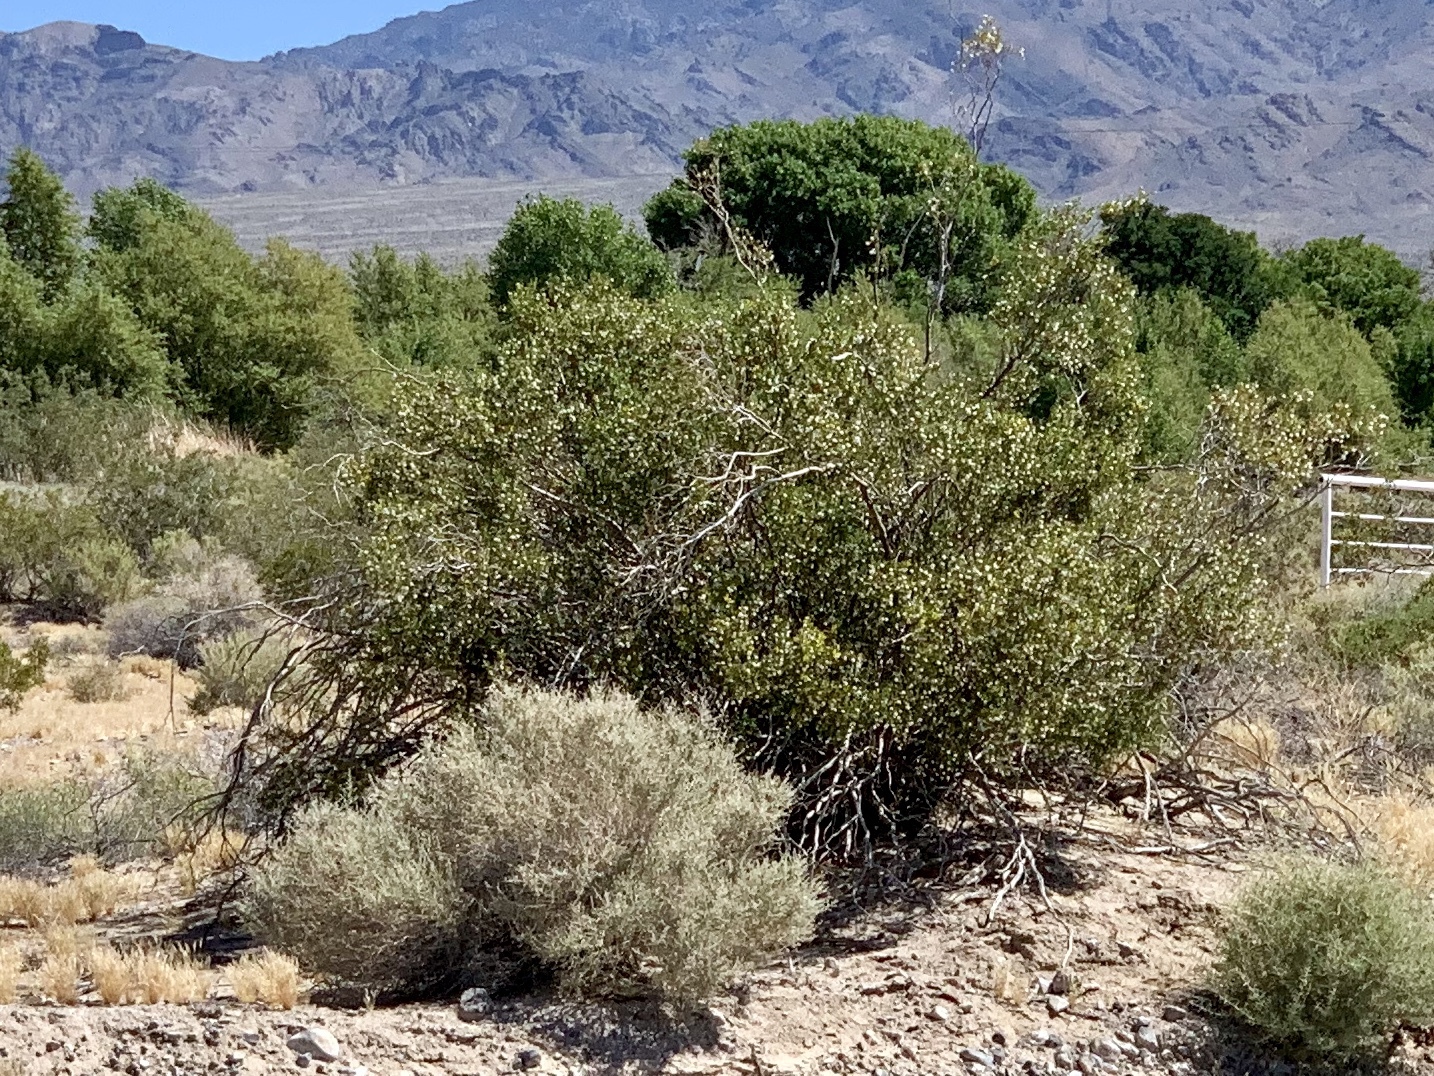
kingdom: Plantae
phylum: Tracheophyta
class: Magnoliopsida
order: Zygophyllales
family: Zygophyllaceae
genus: Larrea
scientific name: Larrea tridentata
